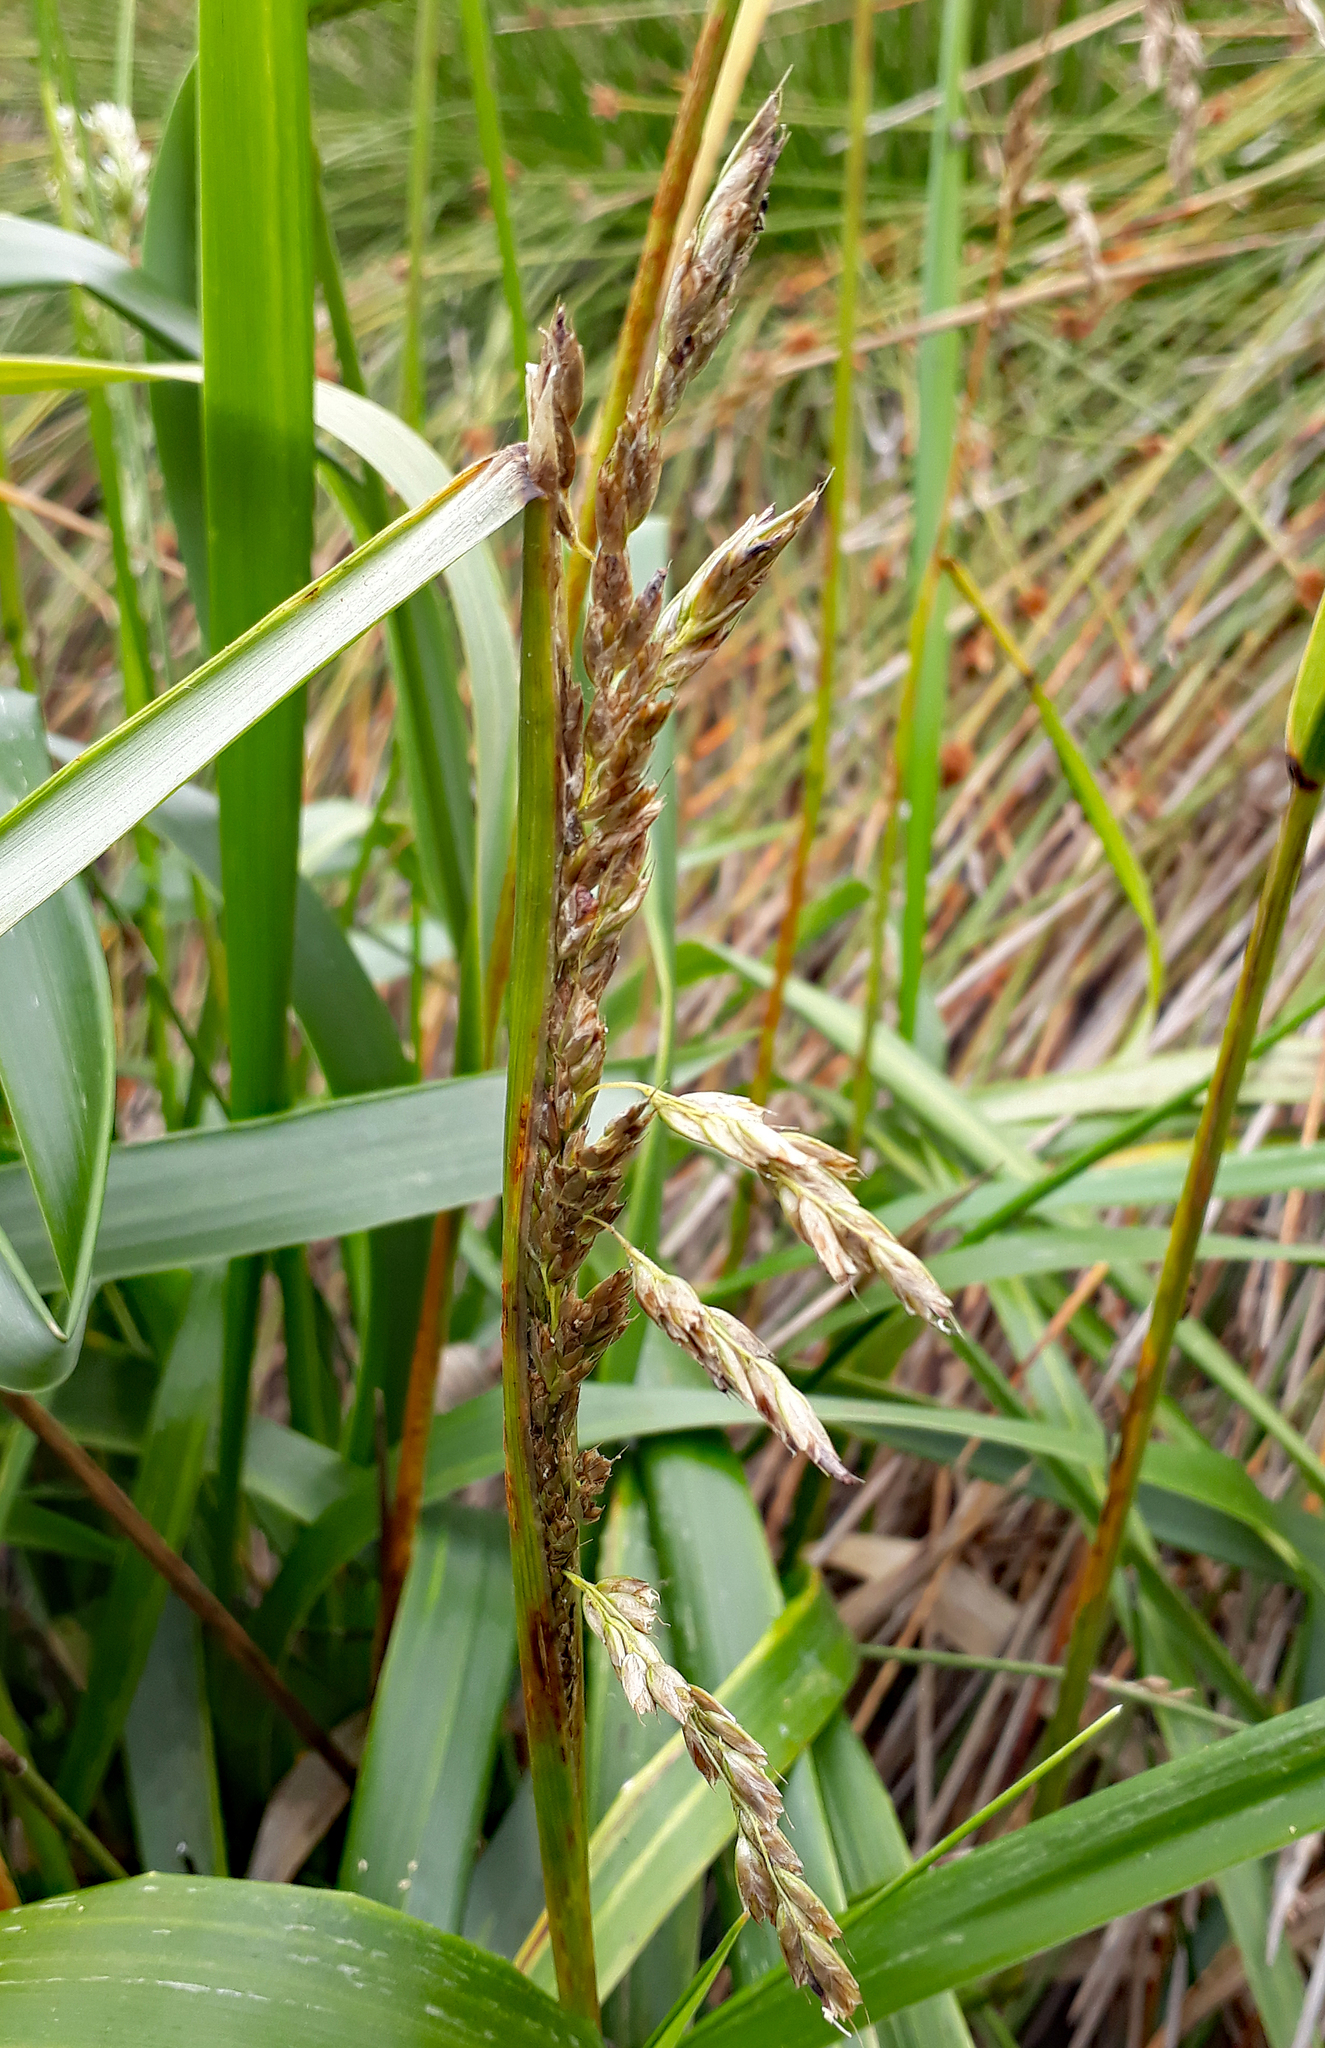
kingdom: Plantae
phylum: Tracheophyta
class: Liliopsida
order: Poales
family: Poaceae
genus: Anthoxanthum
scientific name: Anthoxanthum redolens
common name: Sweet holy grass
